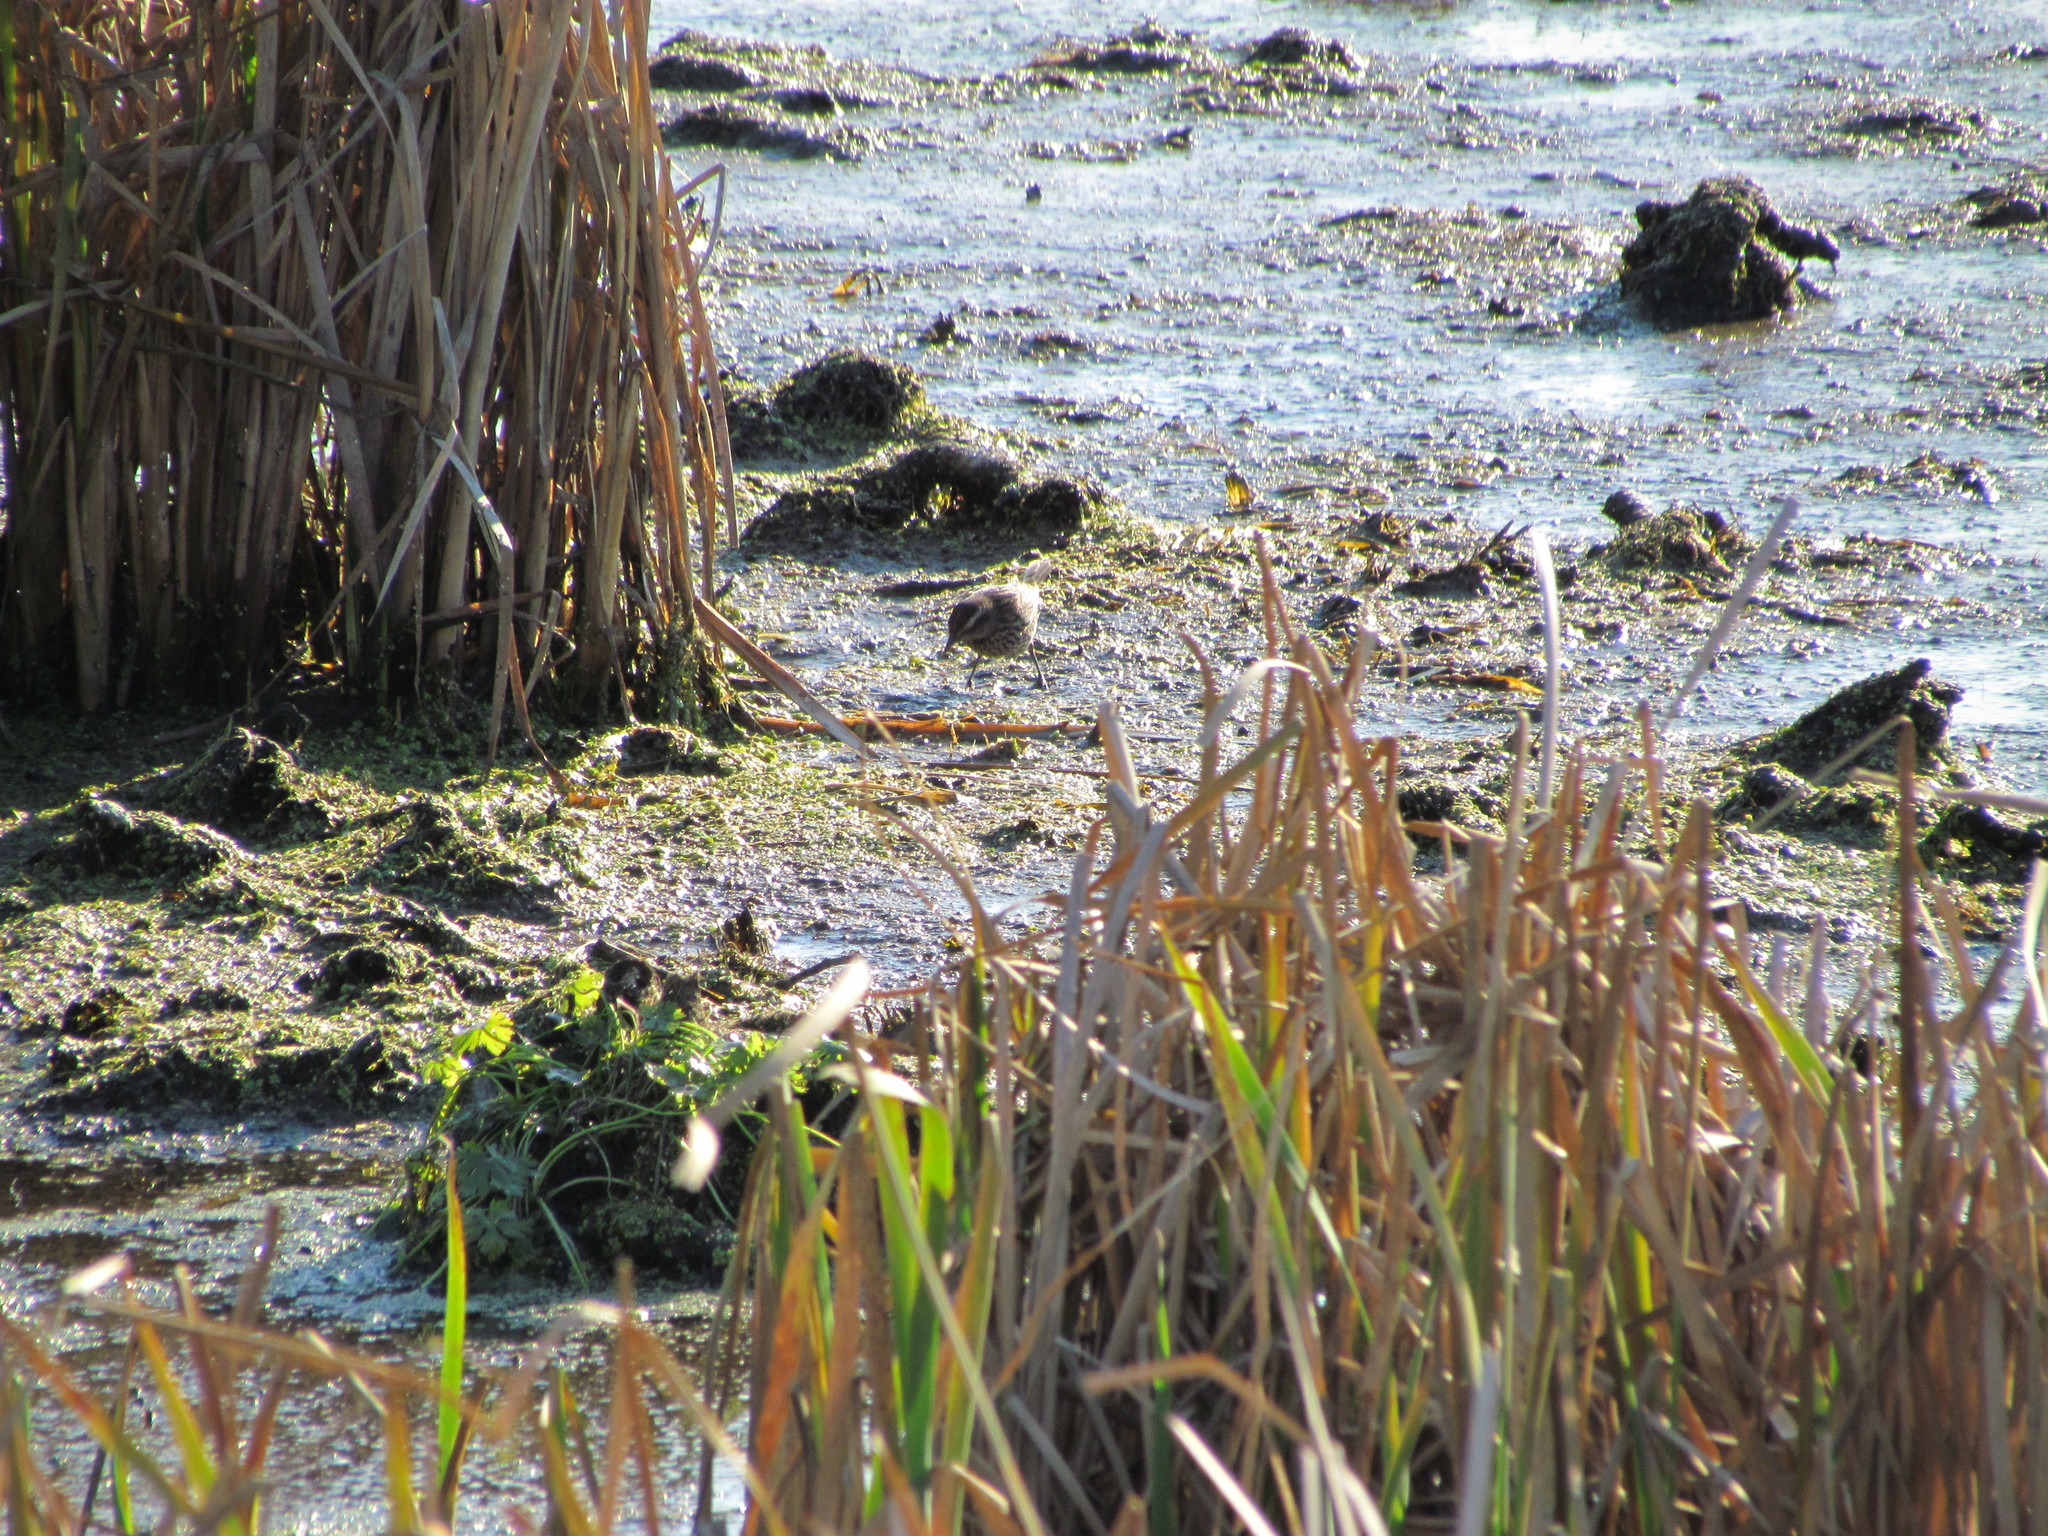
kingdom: Animalia
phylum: Chordata
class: Aves
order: Passeriformes
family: Icteridae
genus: Agelasticus
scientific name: Agelasticus thilius
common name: Yellow-winged blackbird
